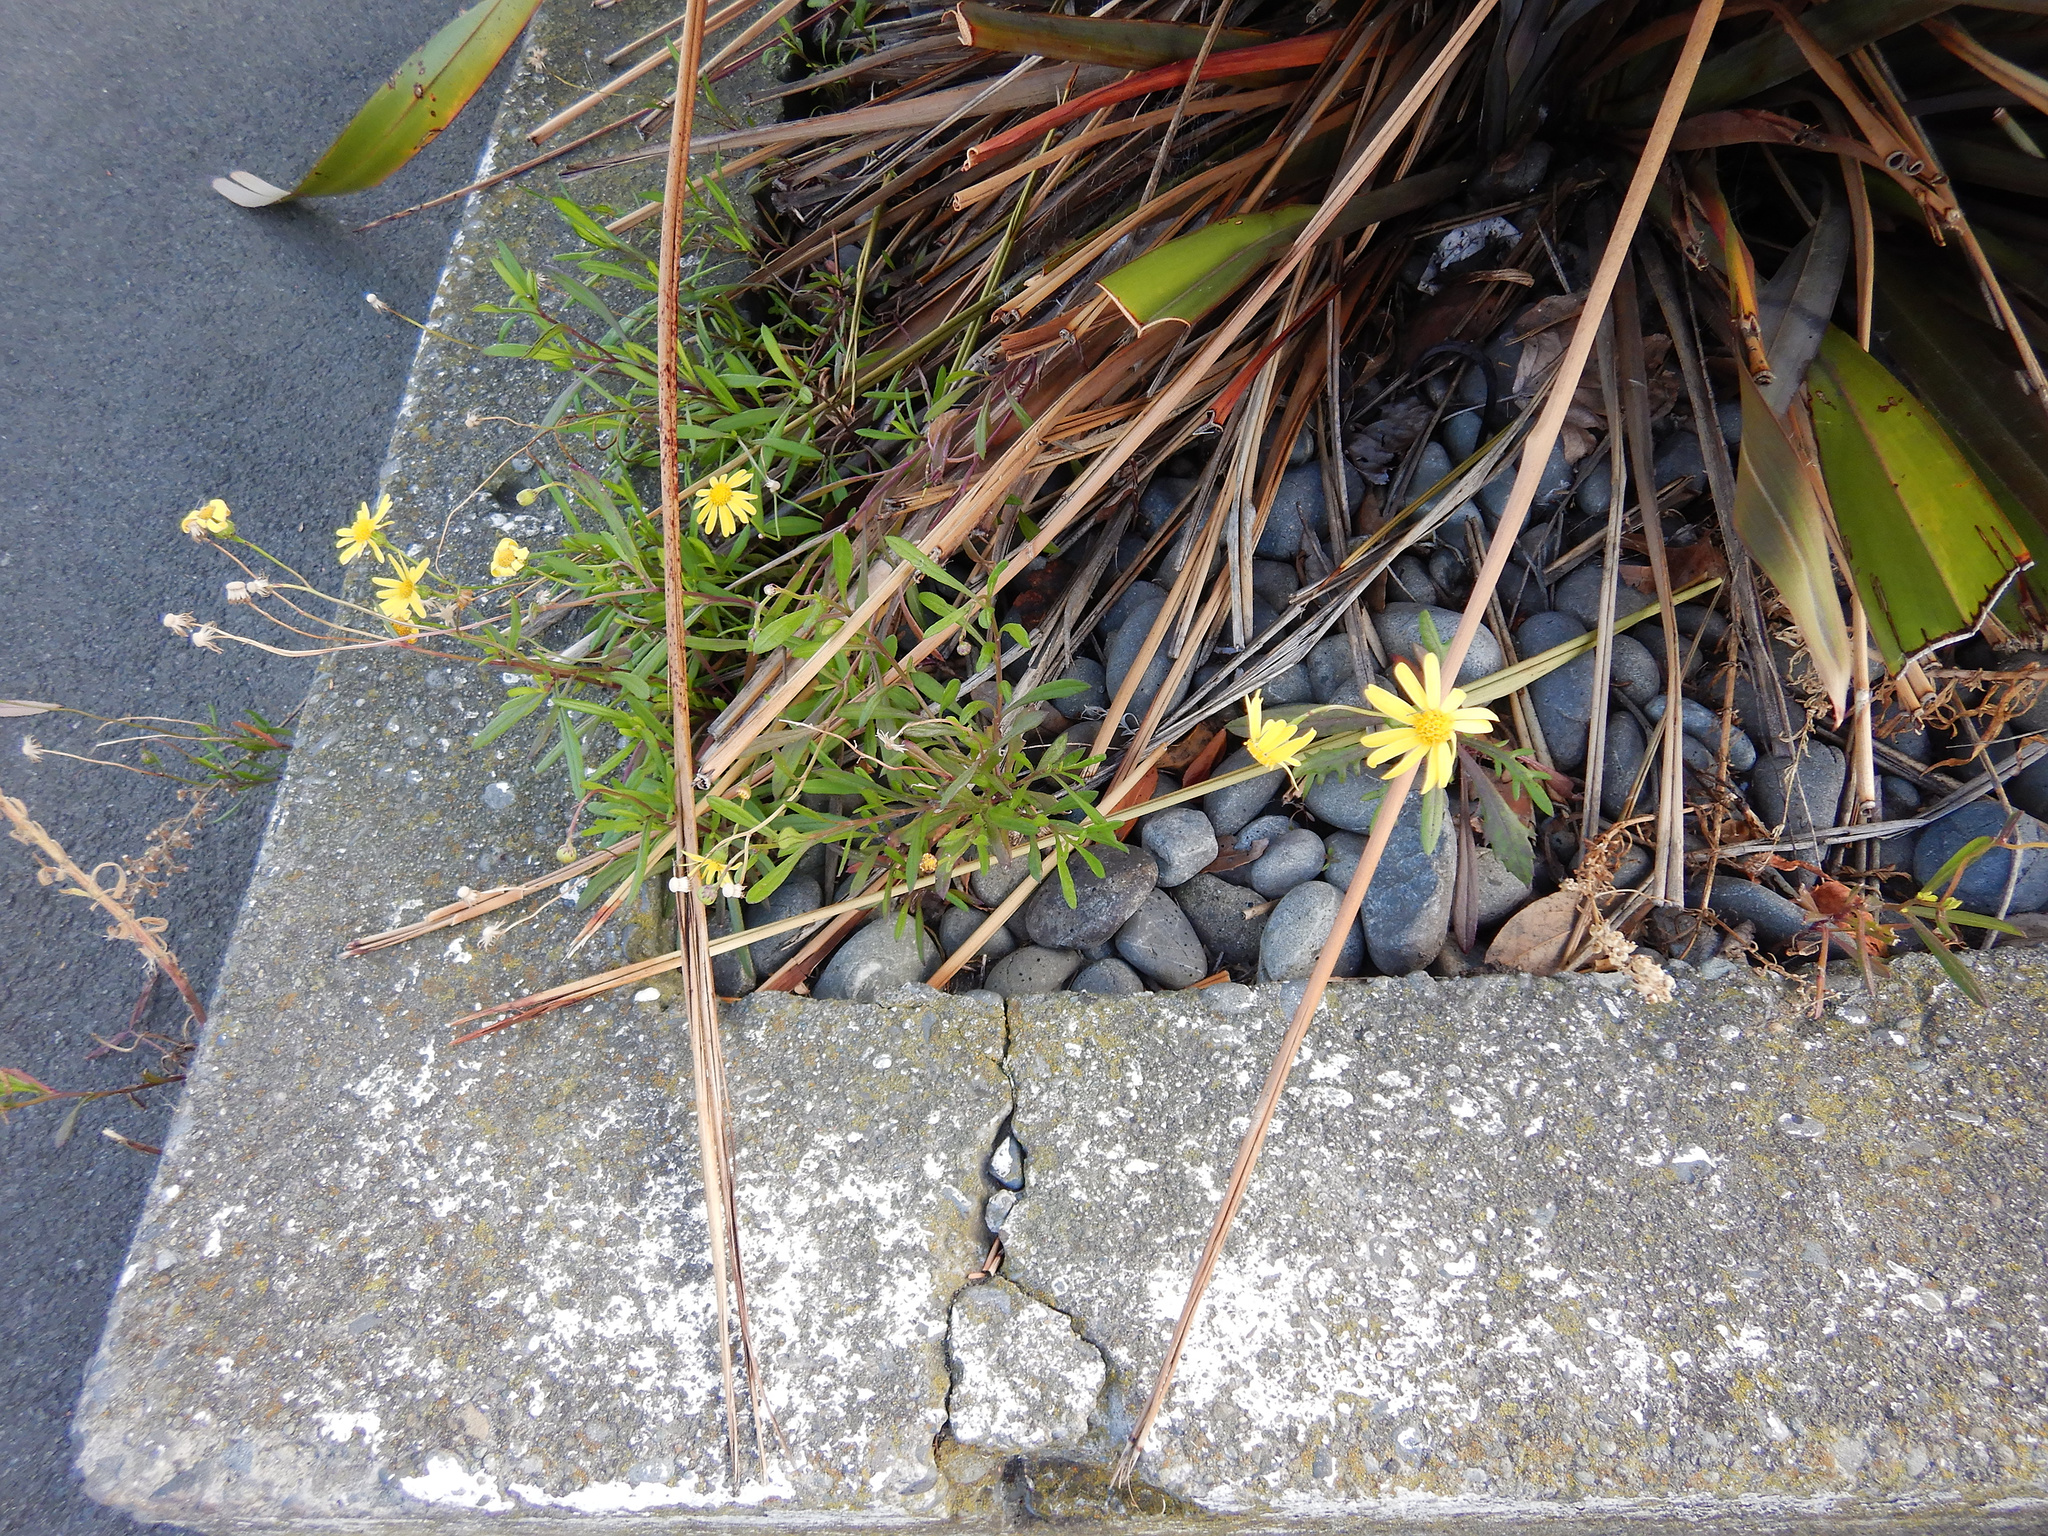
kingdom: Plantae
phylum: Tracheophyta
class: Magnoliopsida
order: Asterales
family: Asteraceae
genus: Senecio
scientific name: Senecio skirrhodon
